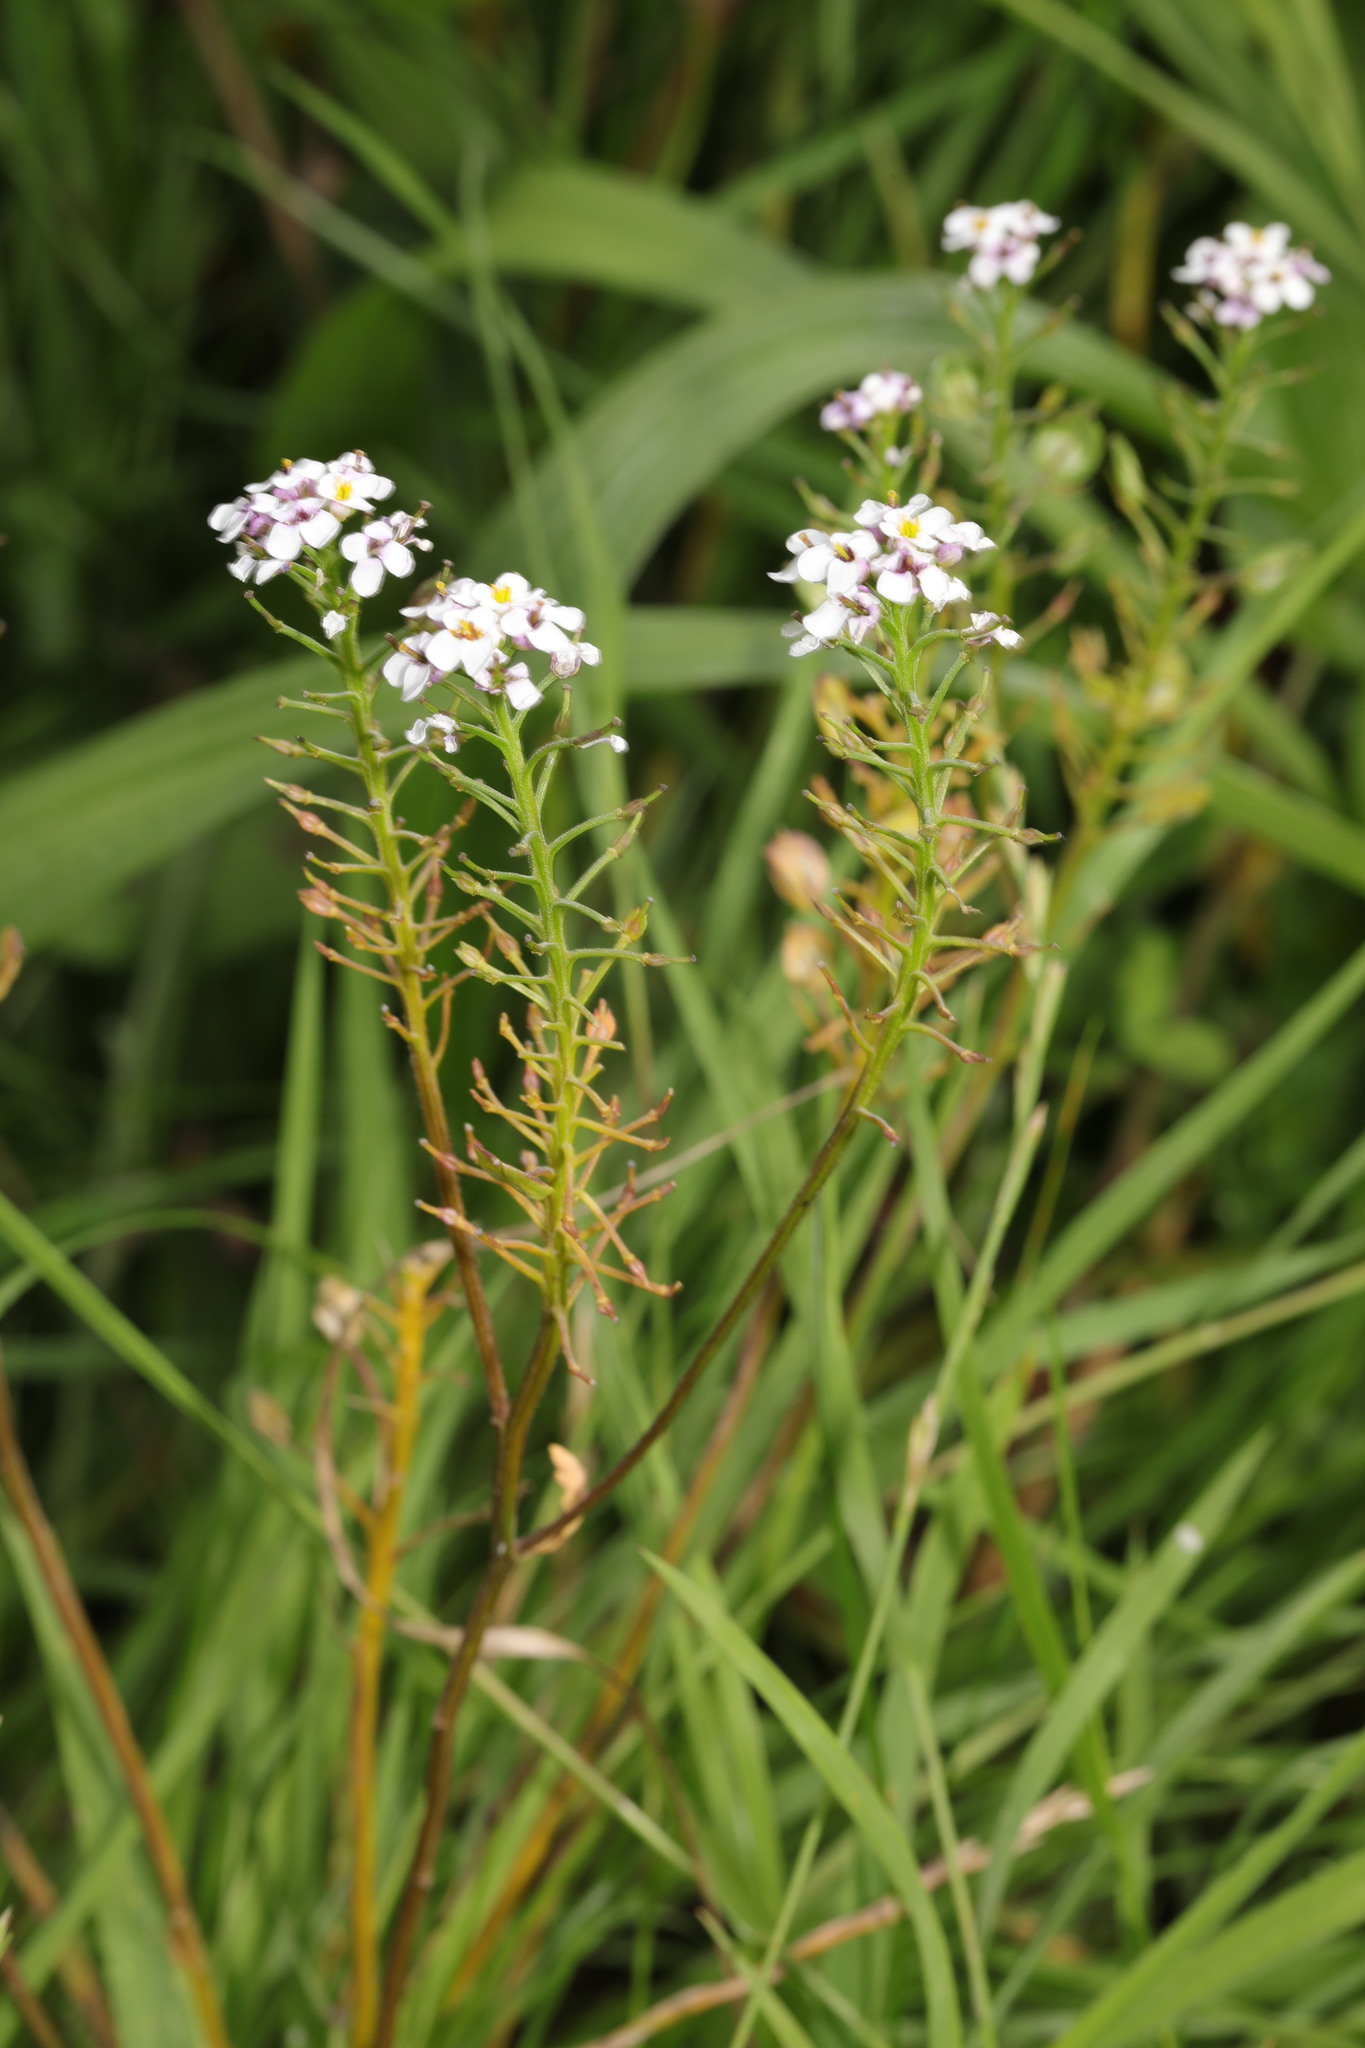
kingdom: Plantae
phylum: Tracheophyta
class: Magnoliopsida
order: Brassicales
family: Brassicaceae
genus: Iberis
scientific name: Iberis umbellata
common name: Globe candytuft
